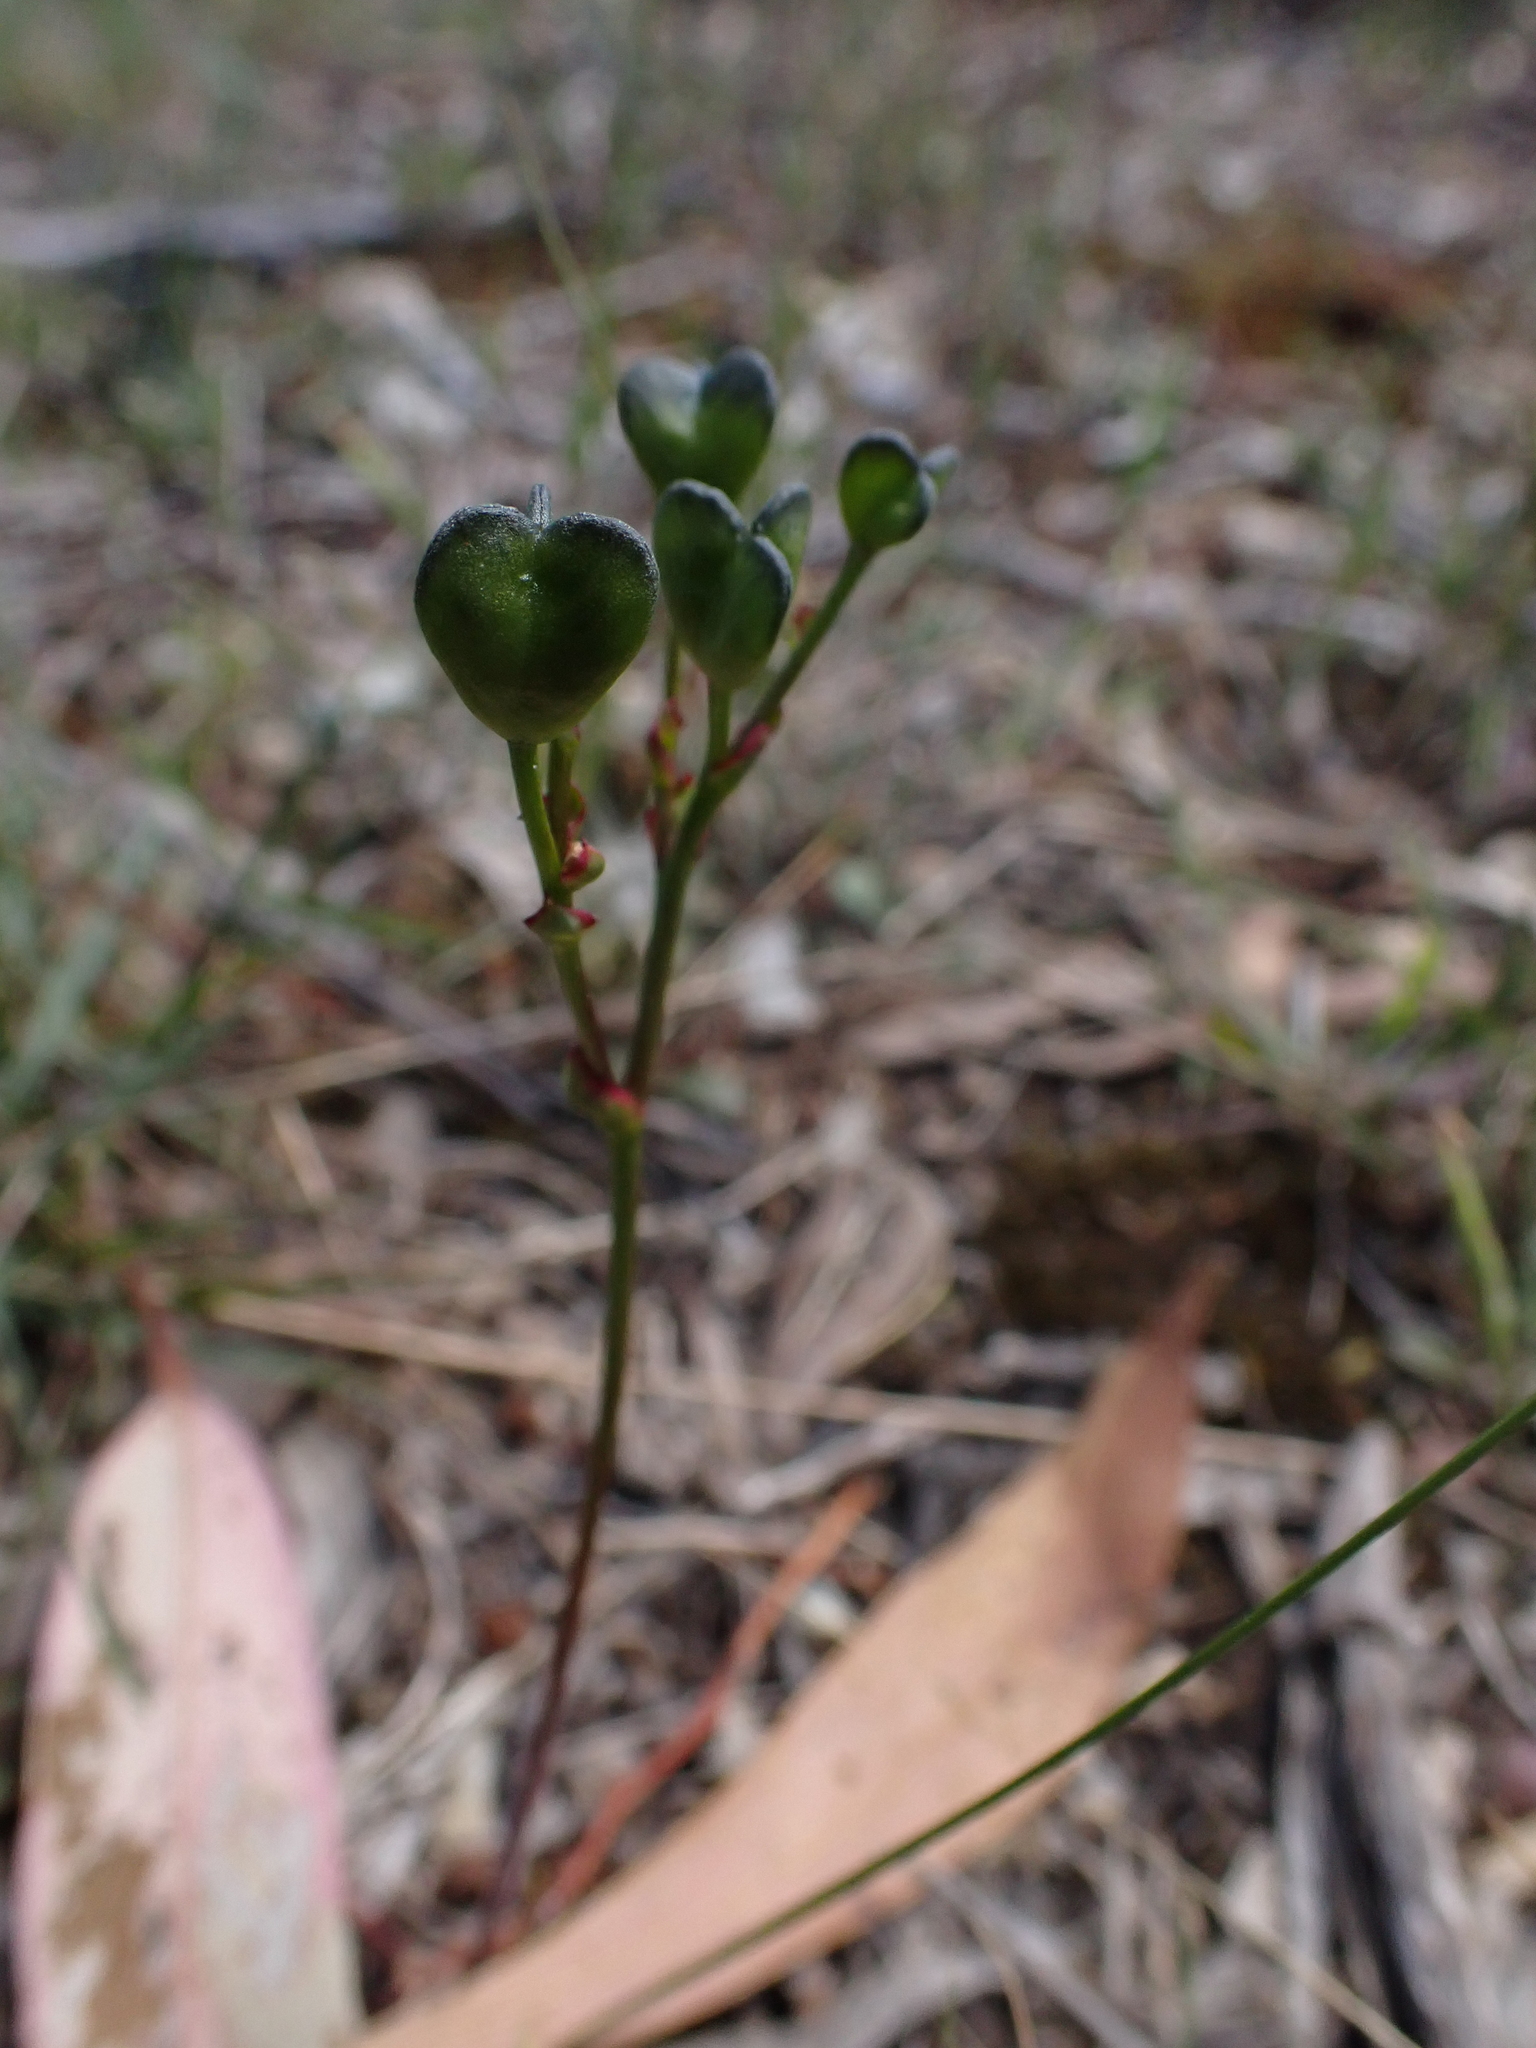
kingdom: Plantae
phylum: Tracheophyta
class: Liliopsida
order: Asparagales
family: Asphodelaceae
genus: Chamaescilla
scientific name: Chamaescilla corymbosa
